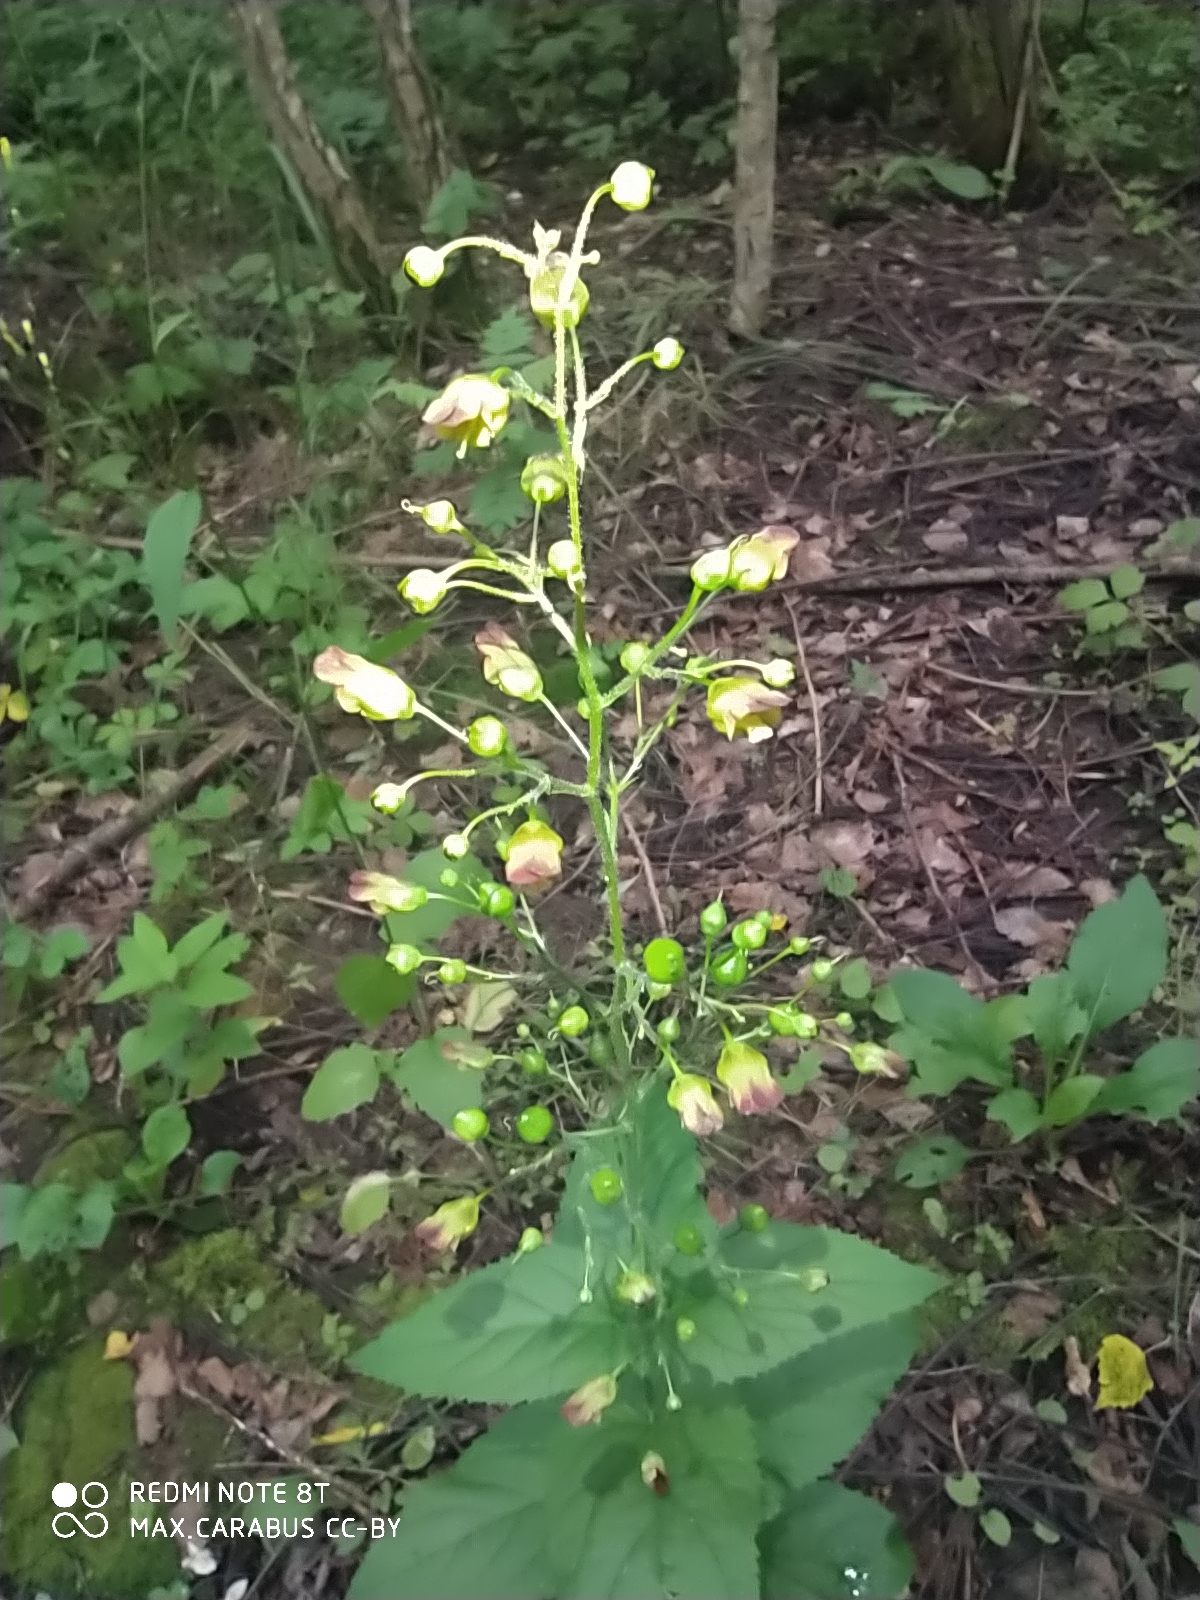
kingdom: Plantae
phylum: Tracheophyta
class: Magnoliopsida
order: Lamiales
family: Scrophulariaceae
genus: Scrophularia
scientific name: Scrophularia nodosa
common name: Common figwort
